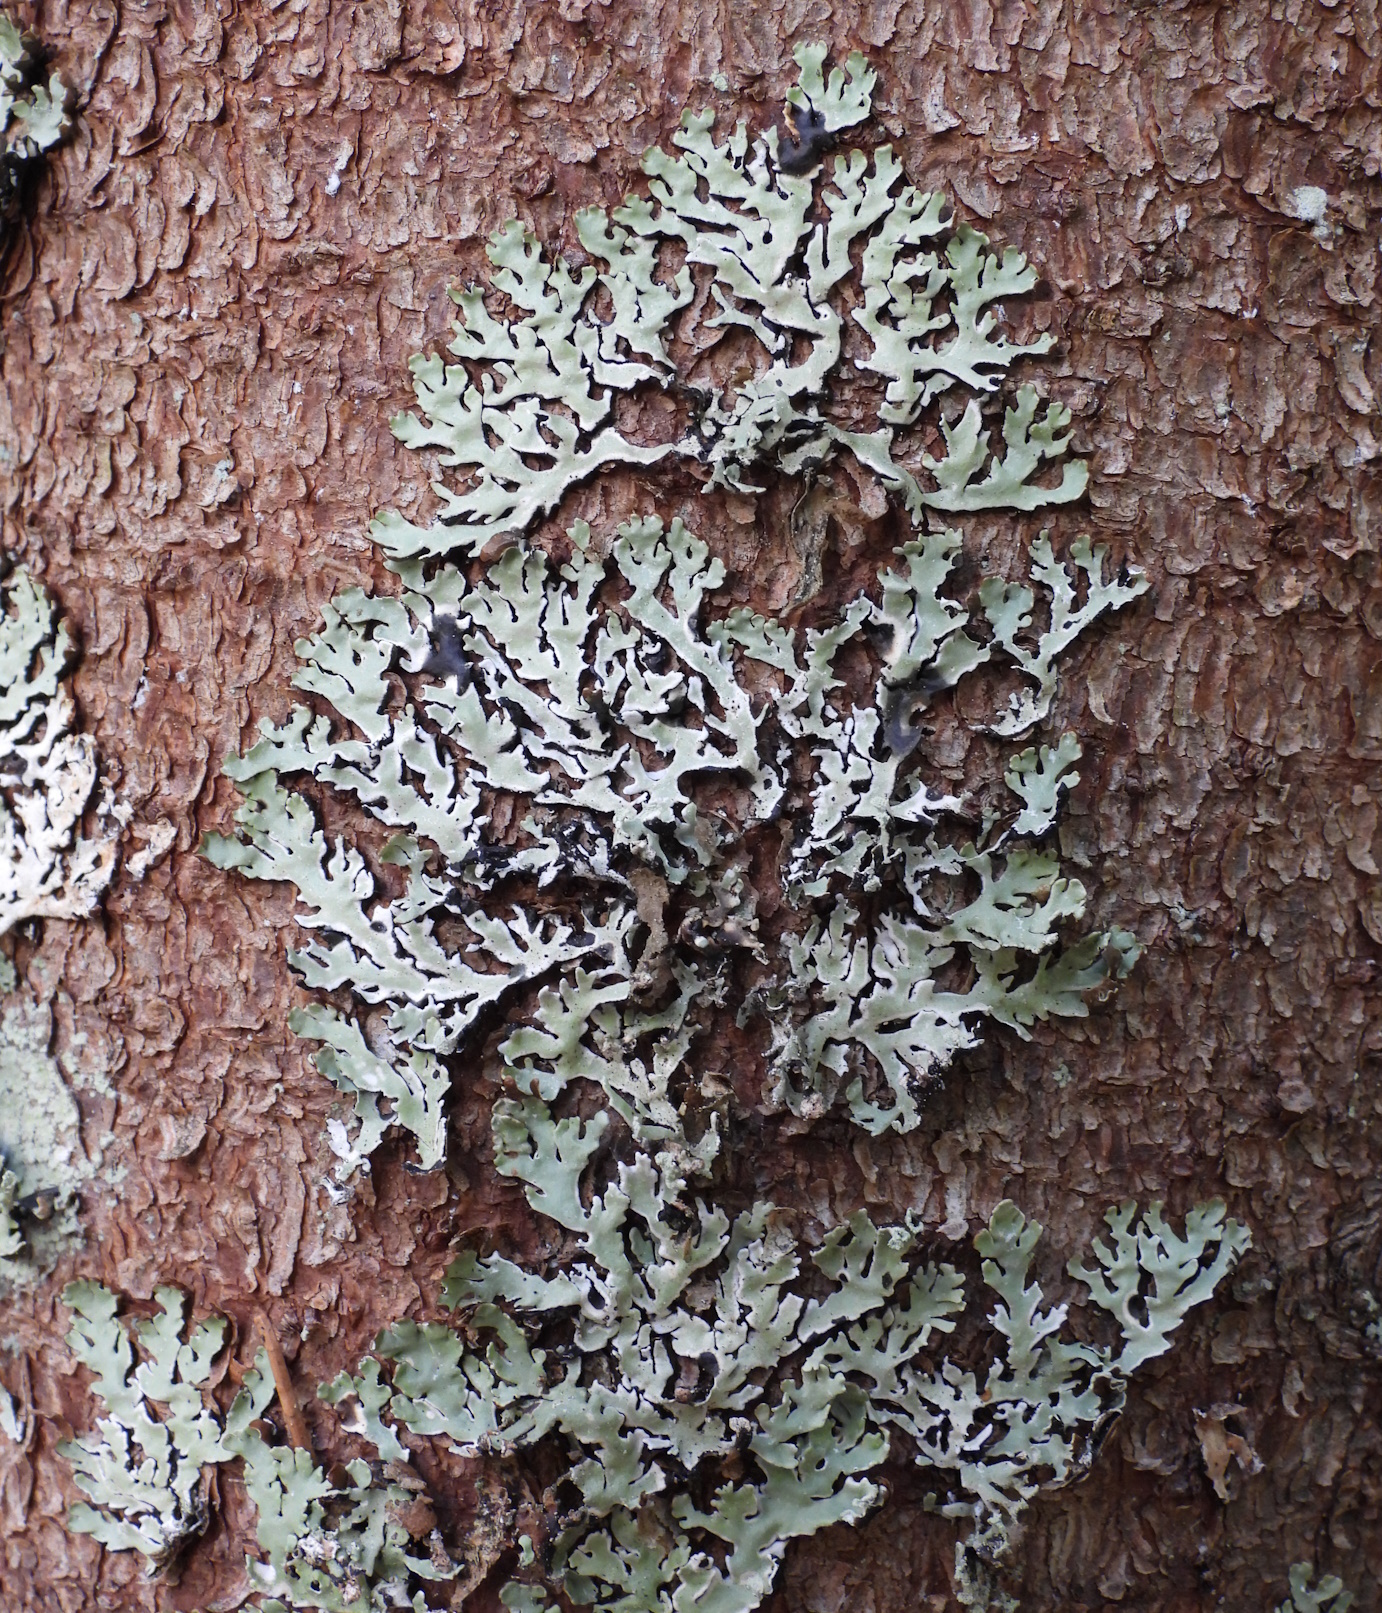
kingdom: Fungi
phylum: Ascomycota
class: Lecanoromycetes
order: Lecanorales
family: Parmeliaceae
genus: Hypogymnia
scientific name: Hypogymnia physodes
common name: Dark crottle
